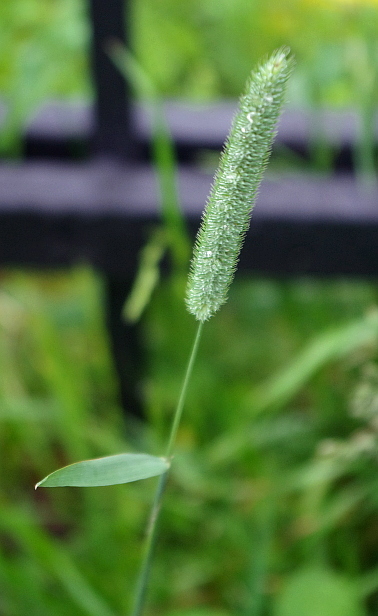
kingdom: Plantae
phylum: Tracheophyta
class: Liliopsida
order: Poales
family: Poaceae
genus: Phleum
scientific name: Phleum pratense
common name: Timothy grass
